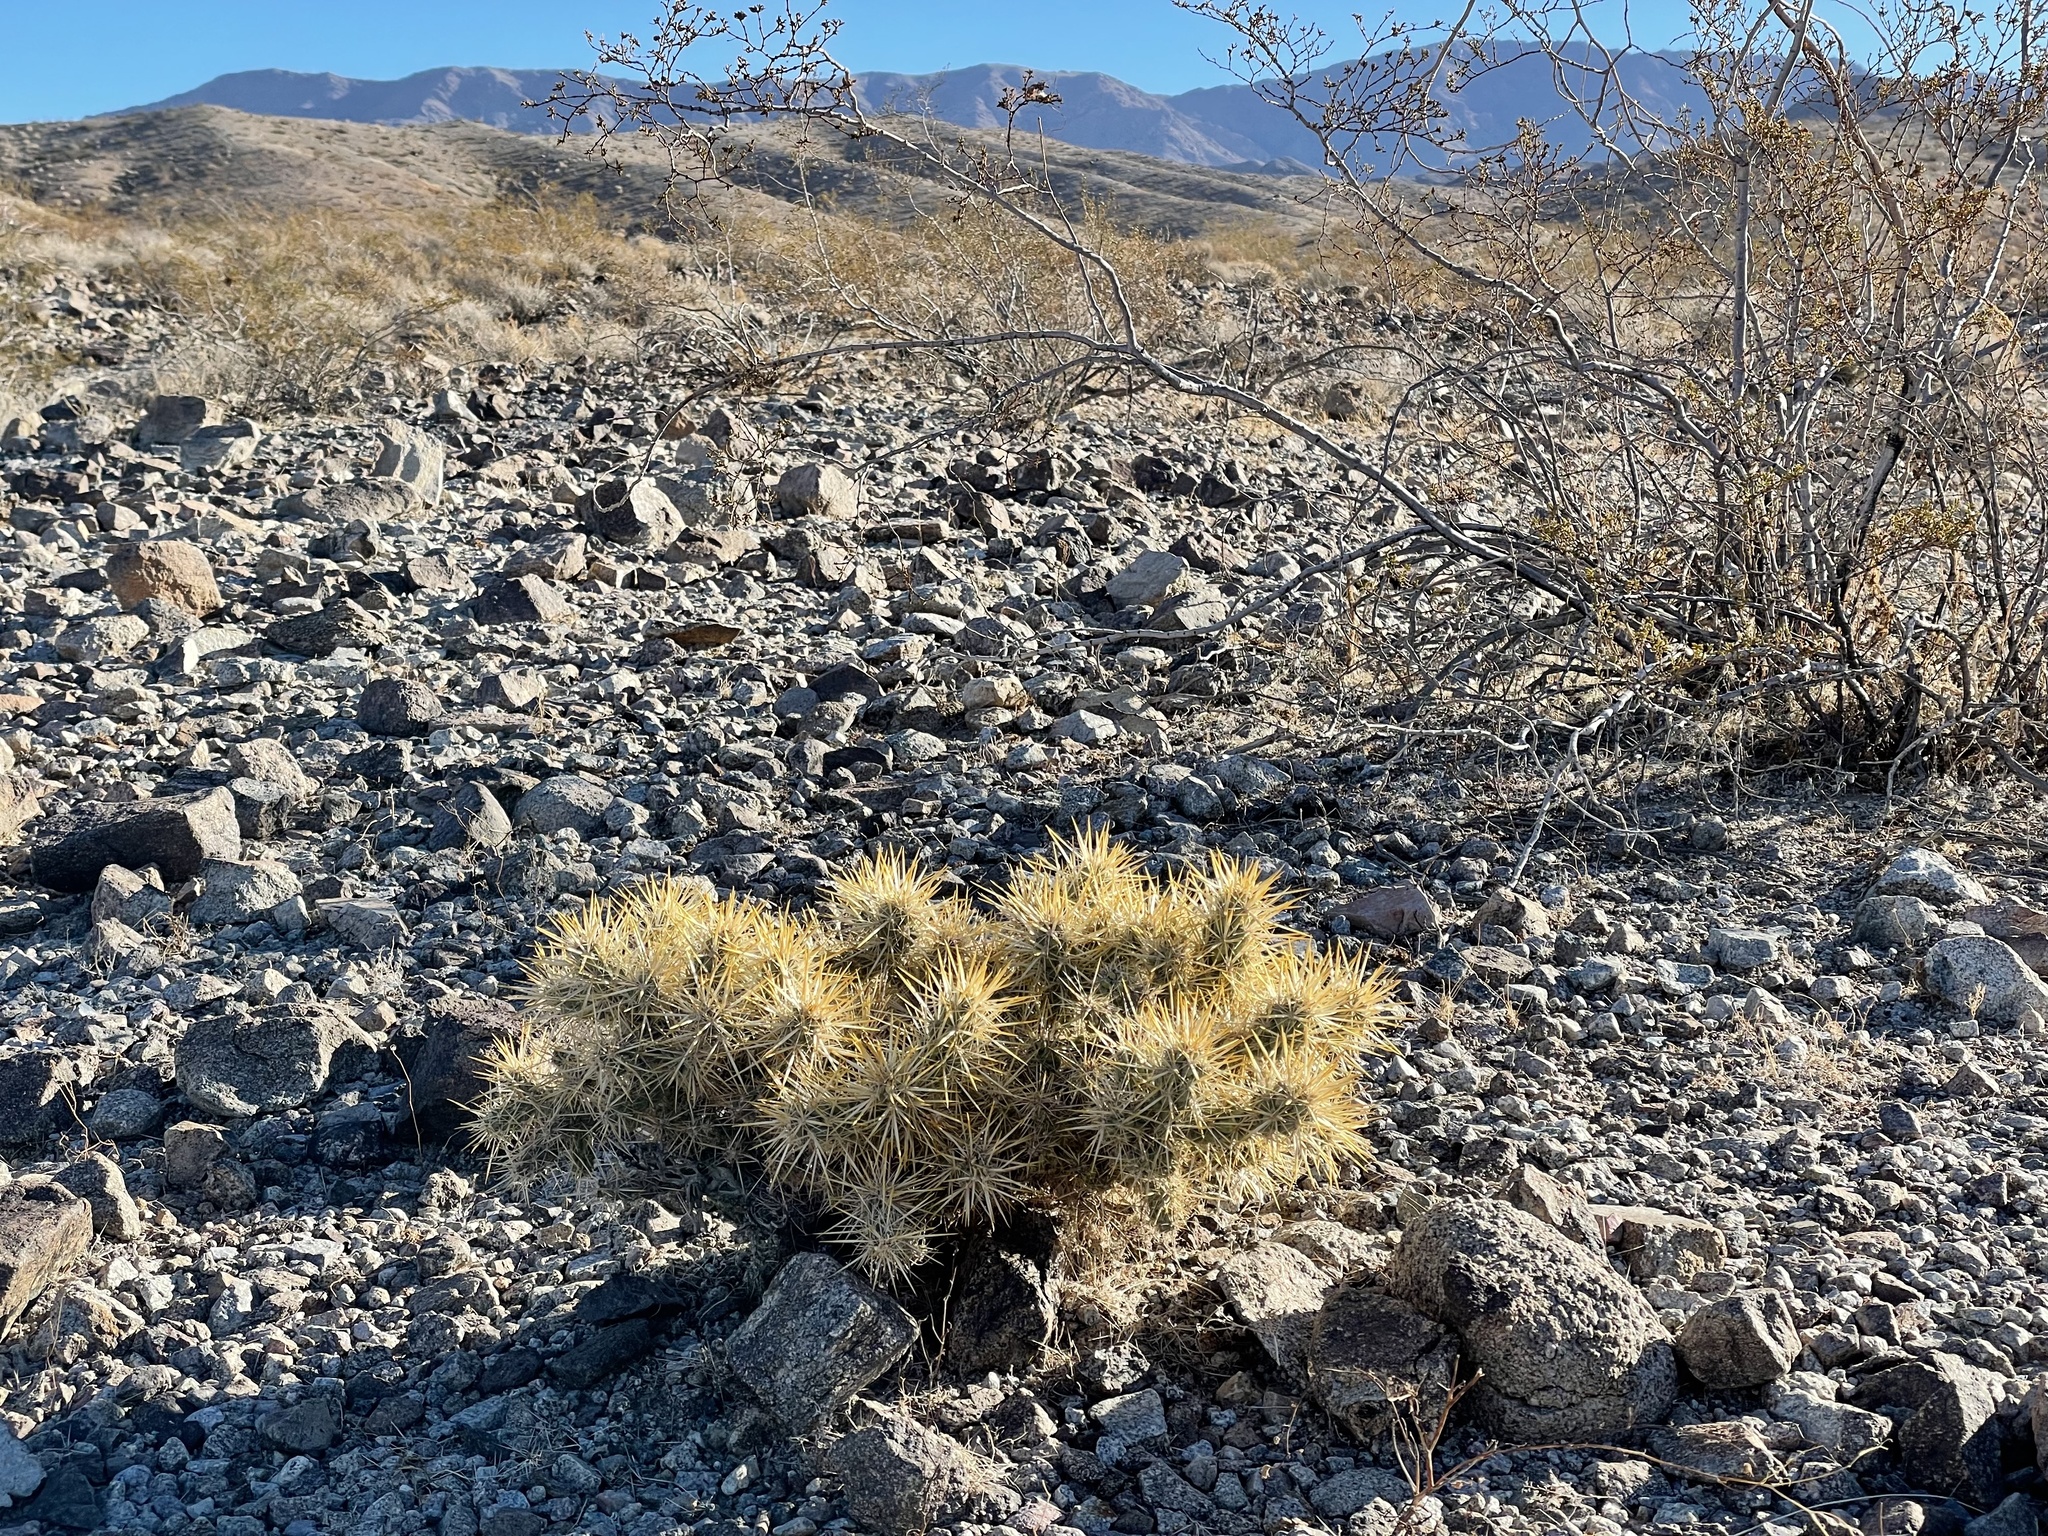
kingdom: Plantae
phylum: Tracheophyta
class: Magnoliopsida
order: Caryophyllales
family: Cactaceae
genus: Cylindropuntia
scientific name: Cylindropuntia echinocarpa
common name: Ground cholla
